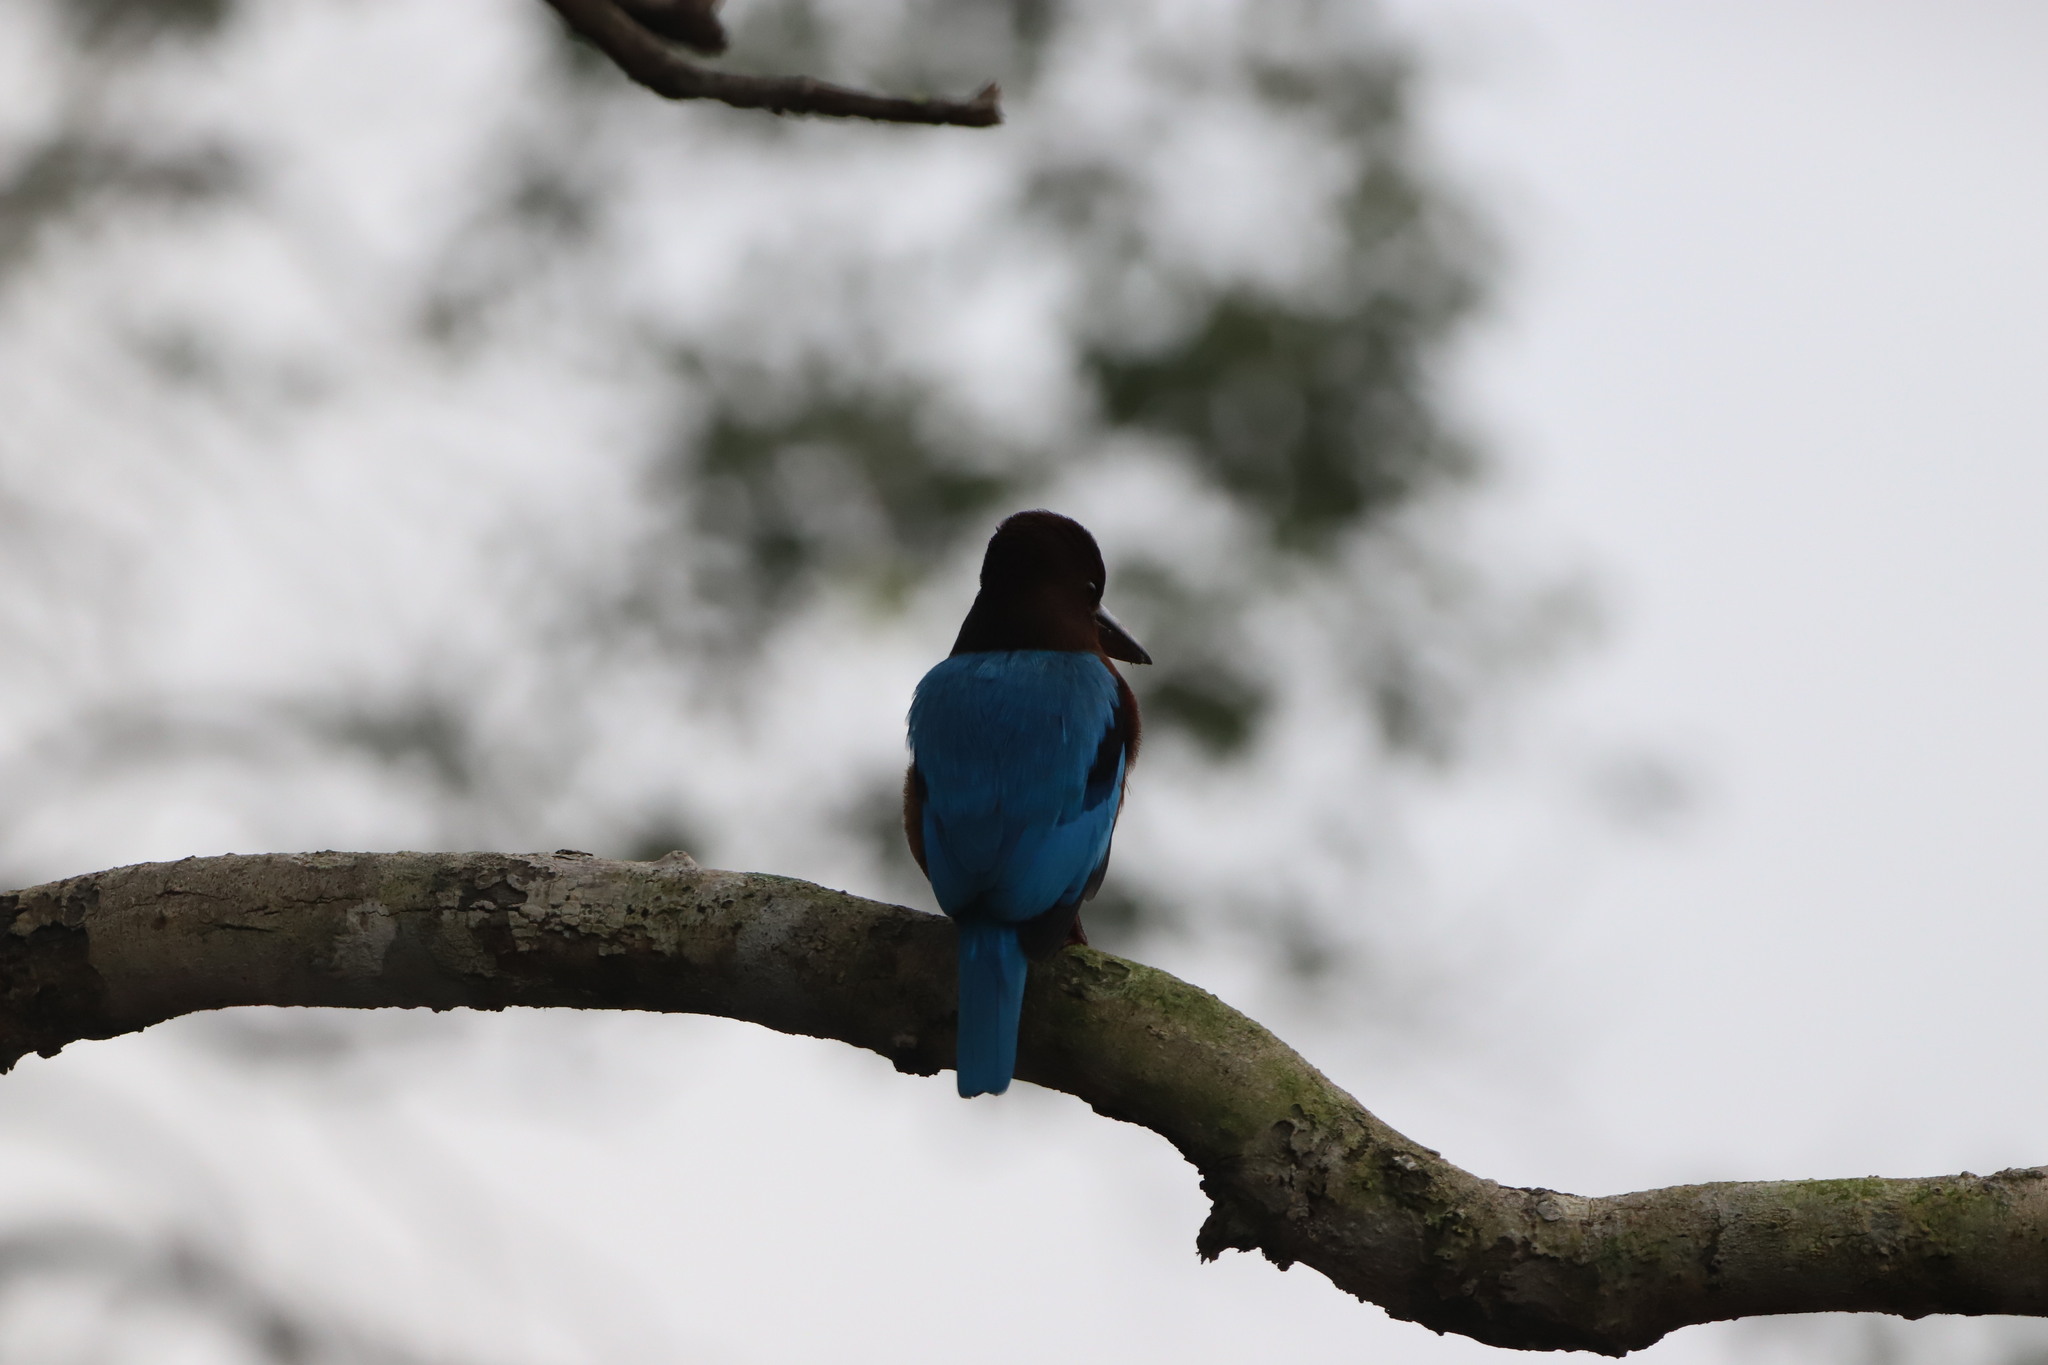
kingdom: Animalia
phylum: Chordata
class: Aves
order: Coraciiformes
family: Alcedinidae
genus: Halcyon
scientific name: Halcyon smyrnensis
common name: White-throated kingfisher
